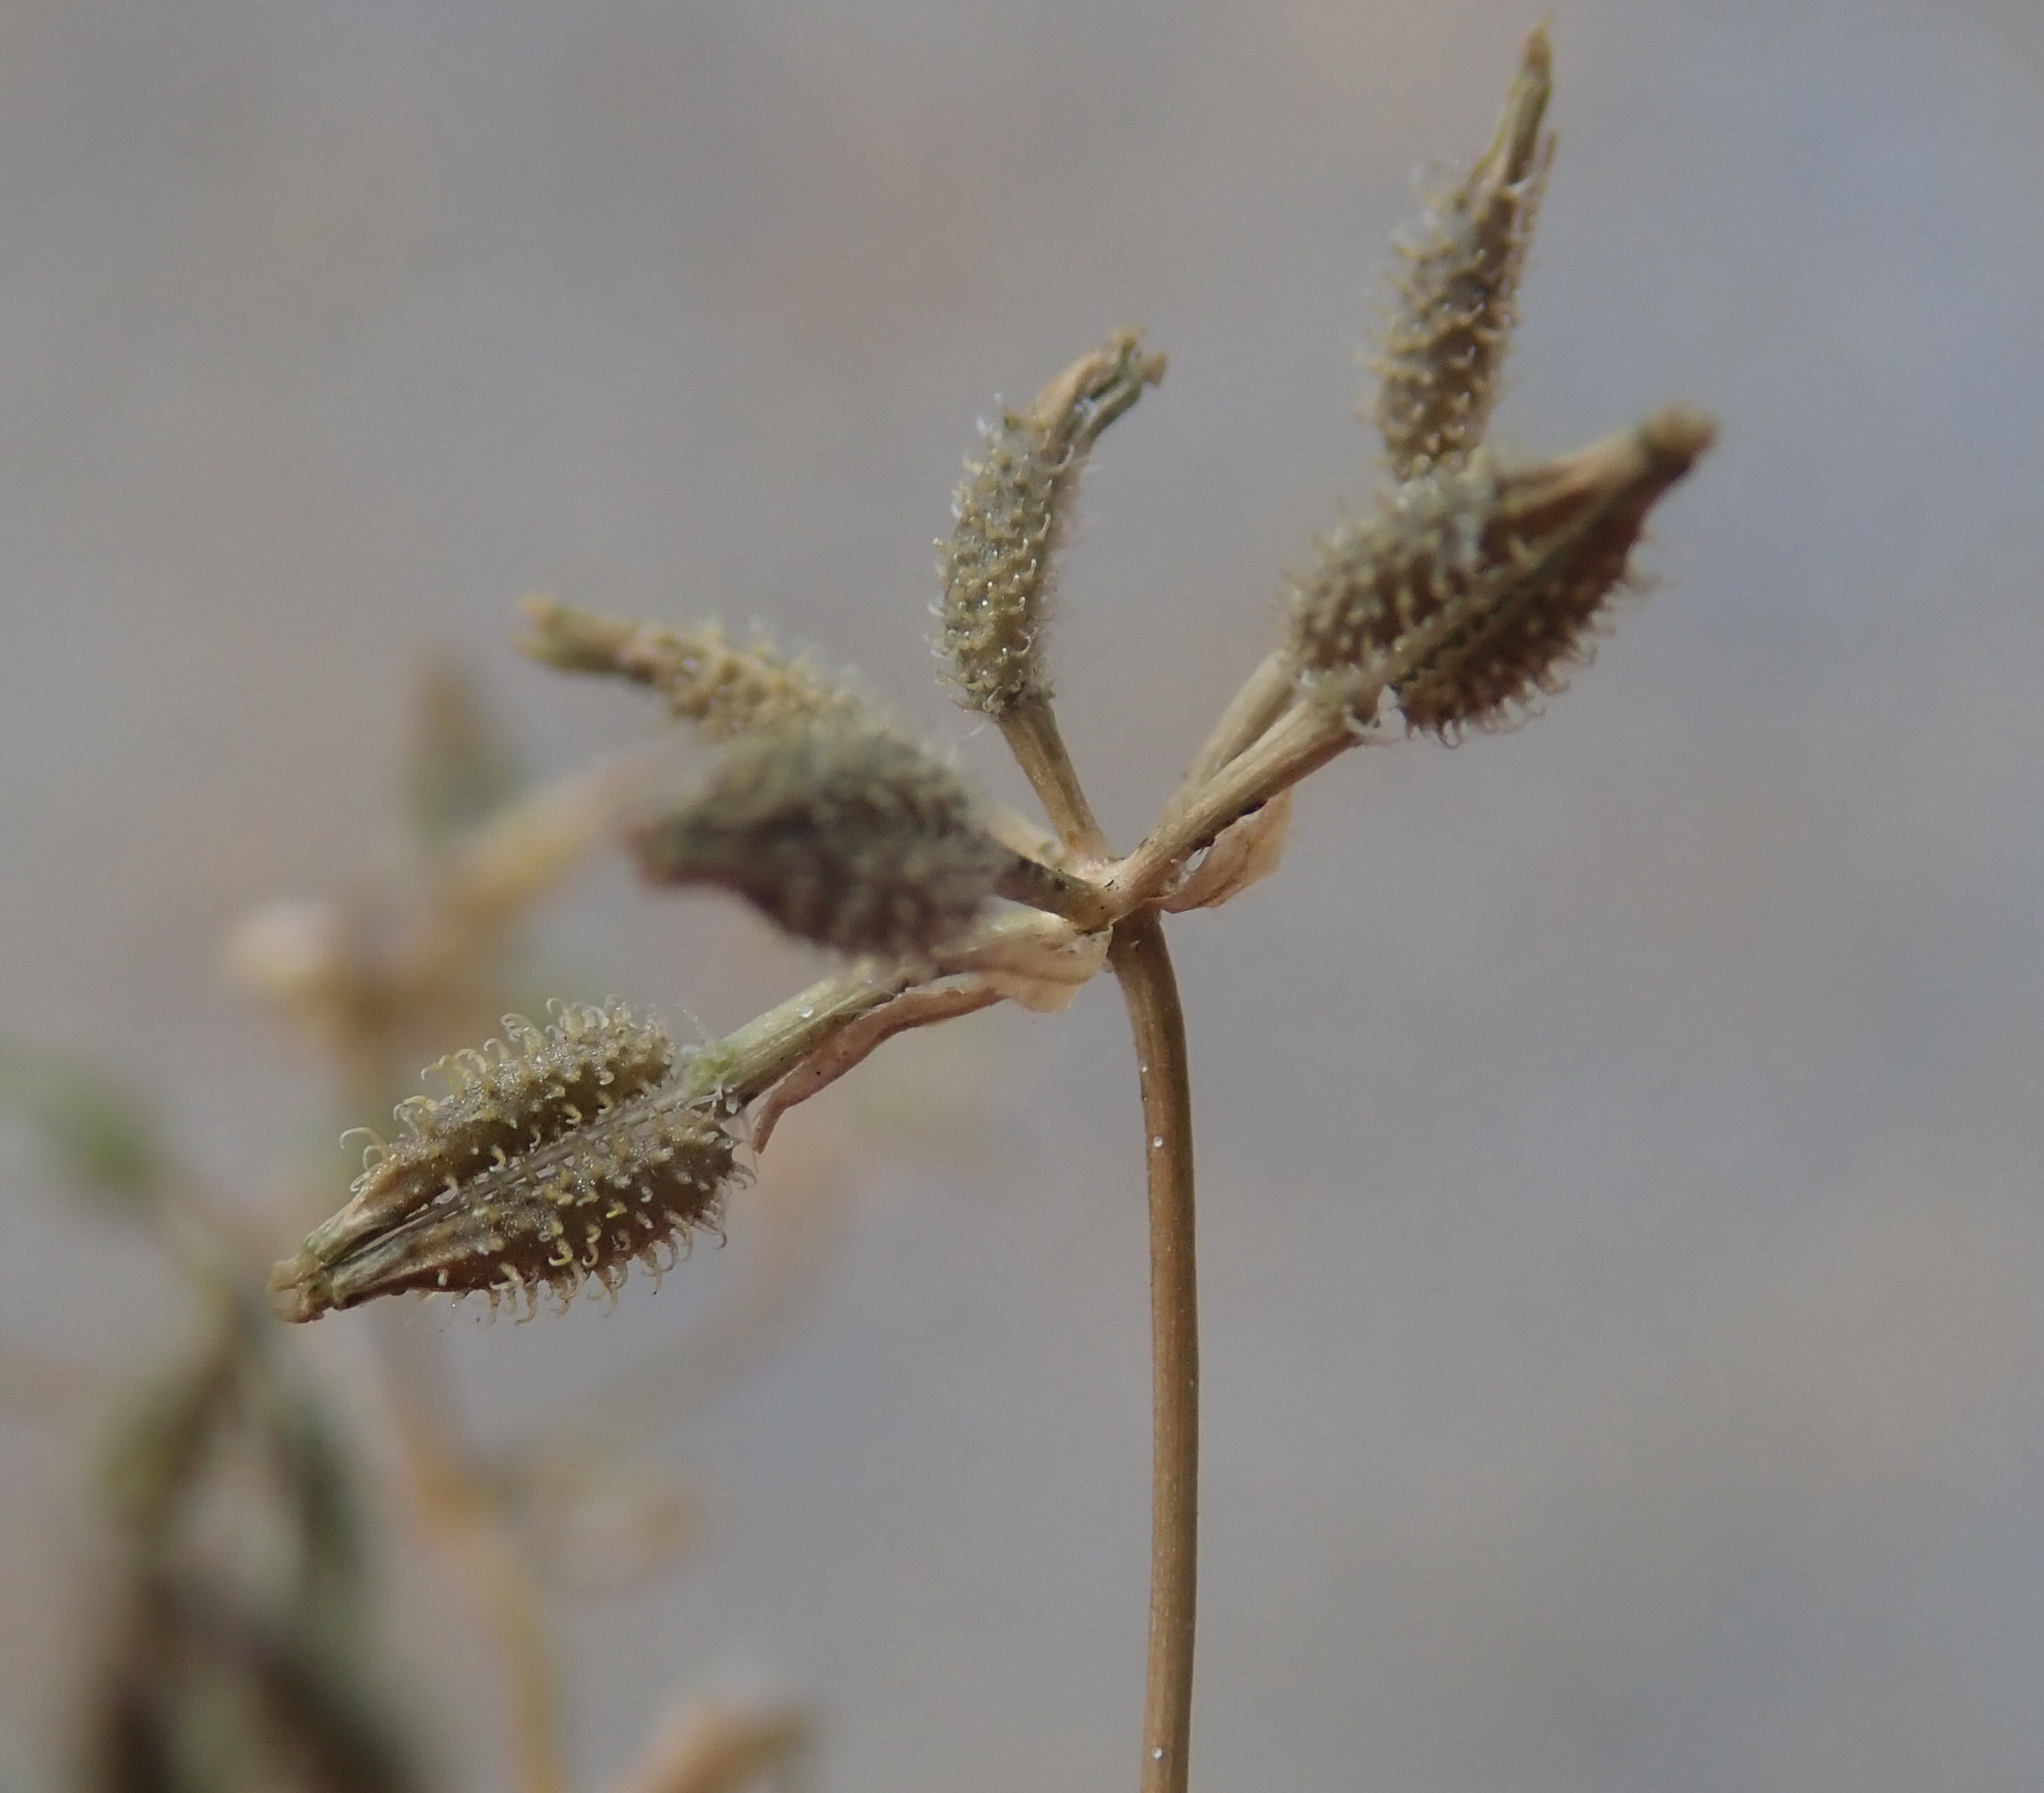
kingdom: Plantae
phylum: Tracheophyta
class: Magnoliopsida
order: Apiales
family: Apiaceae
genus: Anthriscus
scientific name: Anthriscus caucalis
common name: Bur chervil
